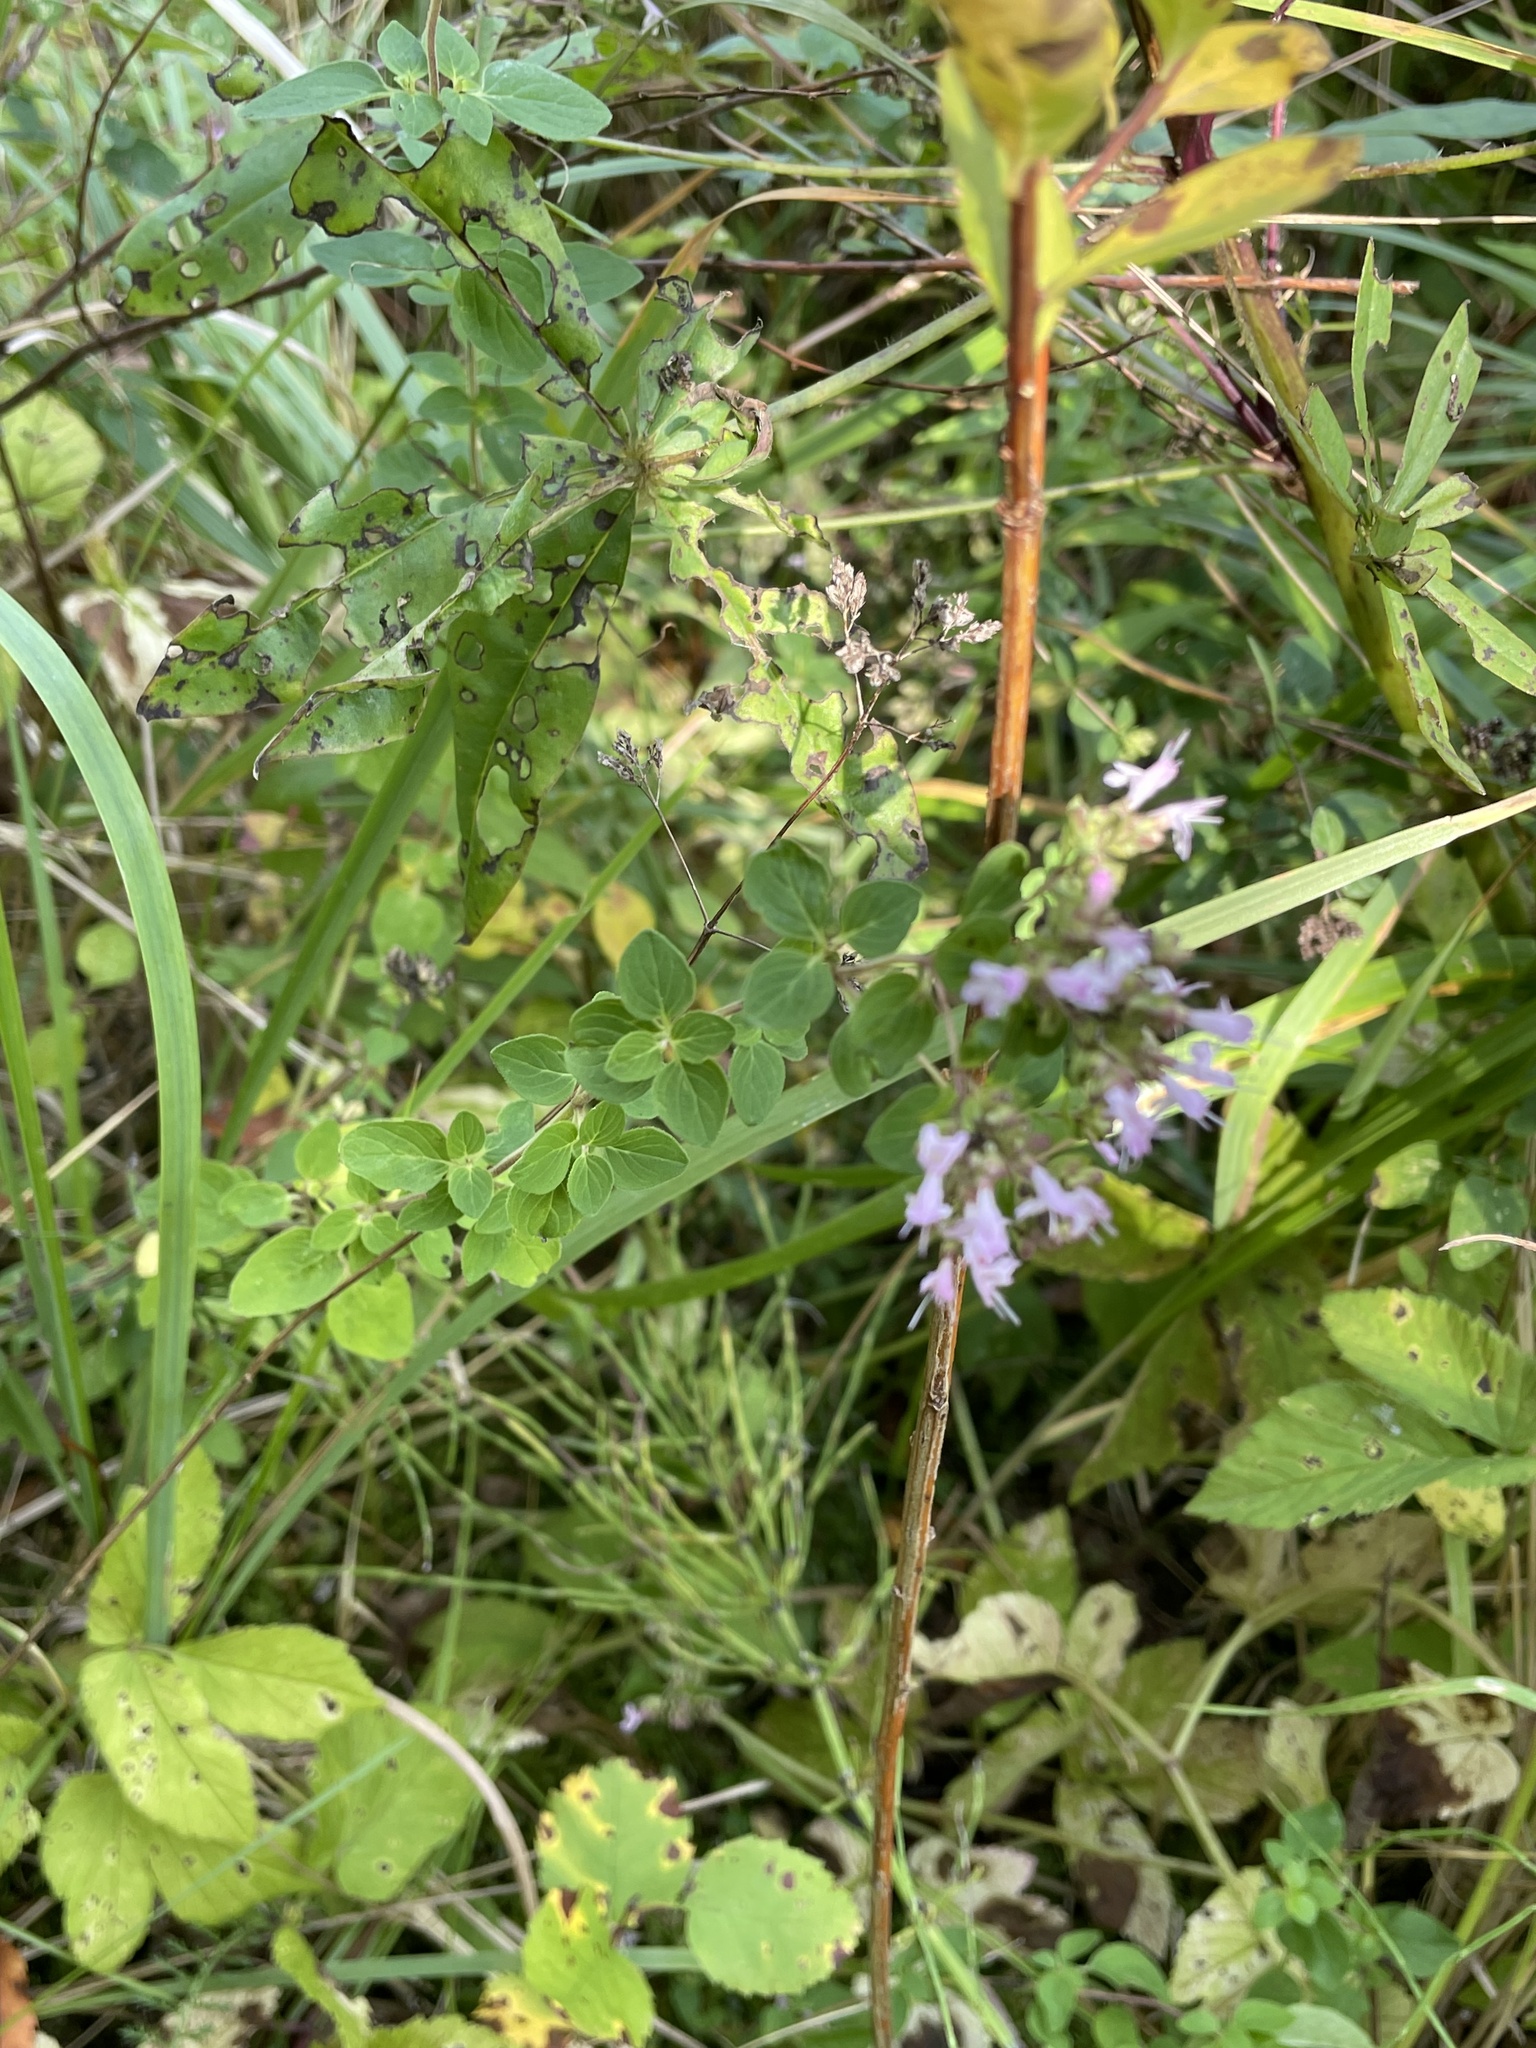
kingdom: Plantae
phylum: Tracheophyta
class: Magnoliopsida
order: Lamiales
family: Lamiaceae
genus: Origanum
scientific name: Origanum vulgare
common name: Wild marjoram
